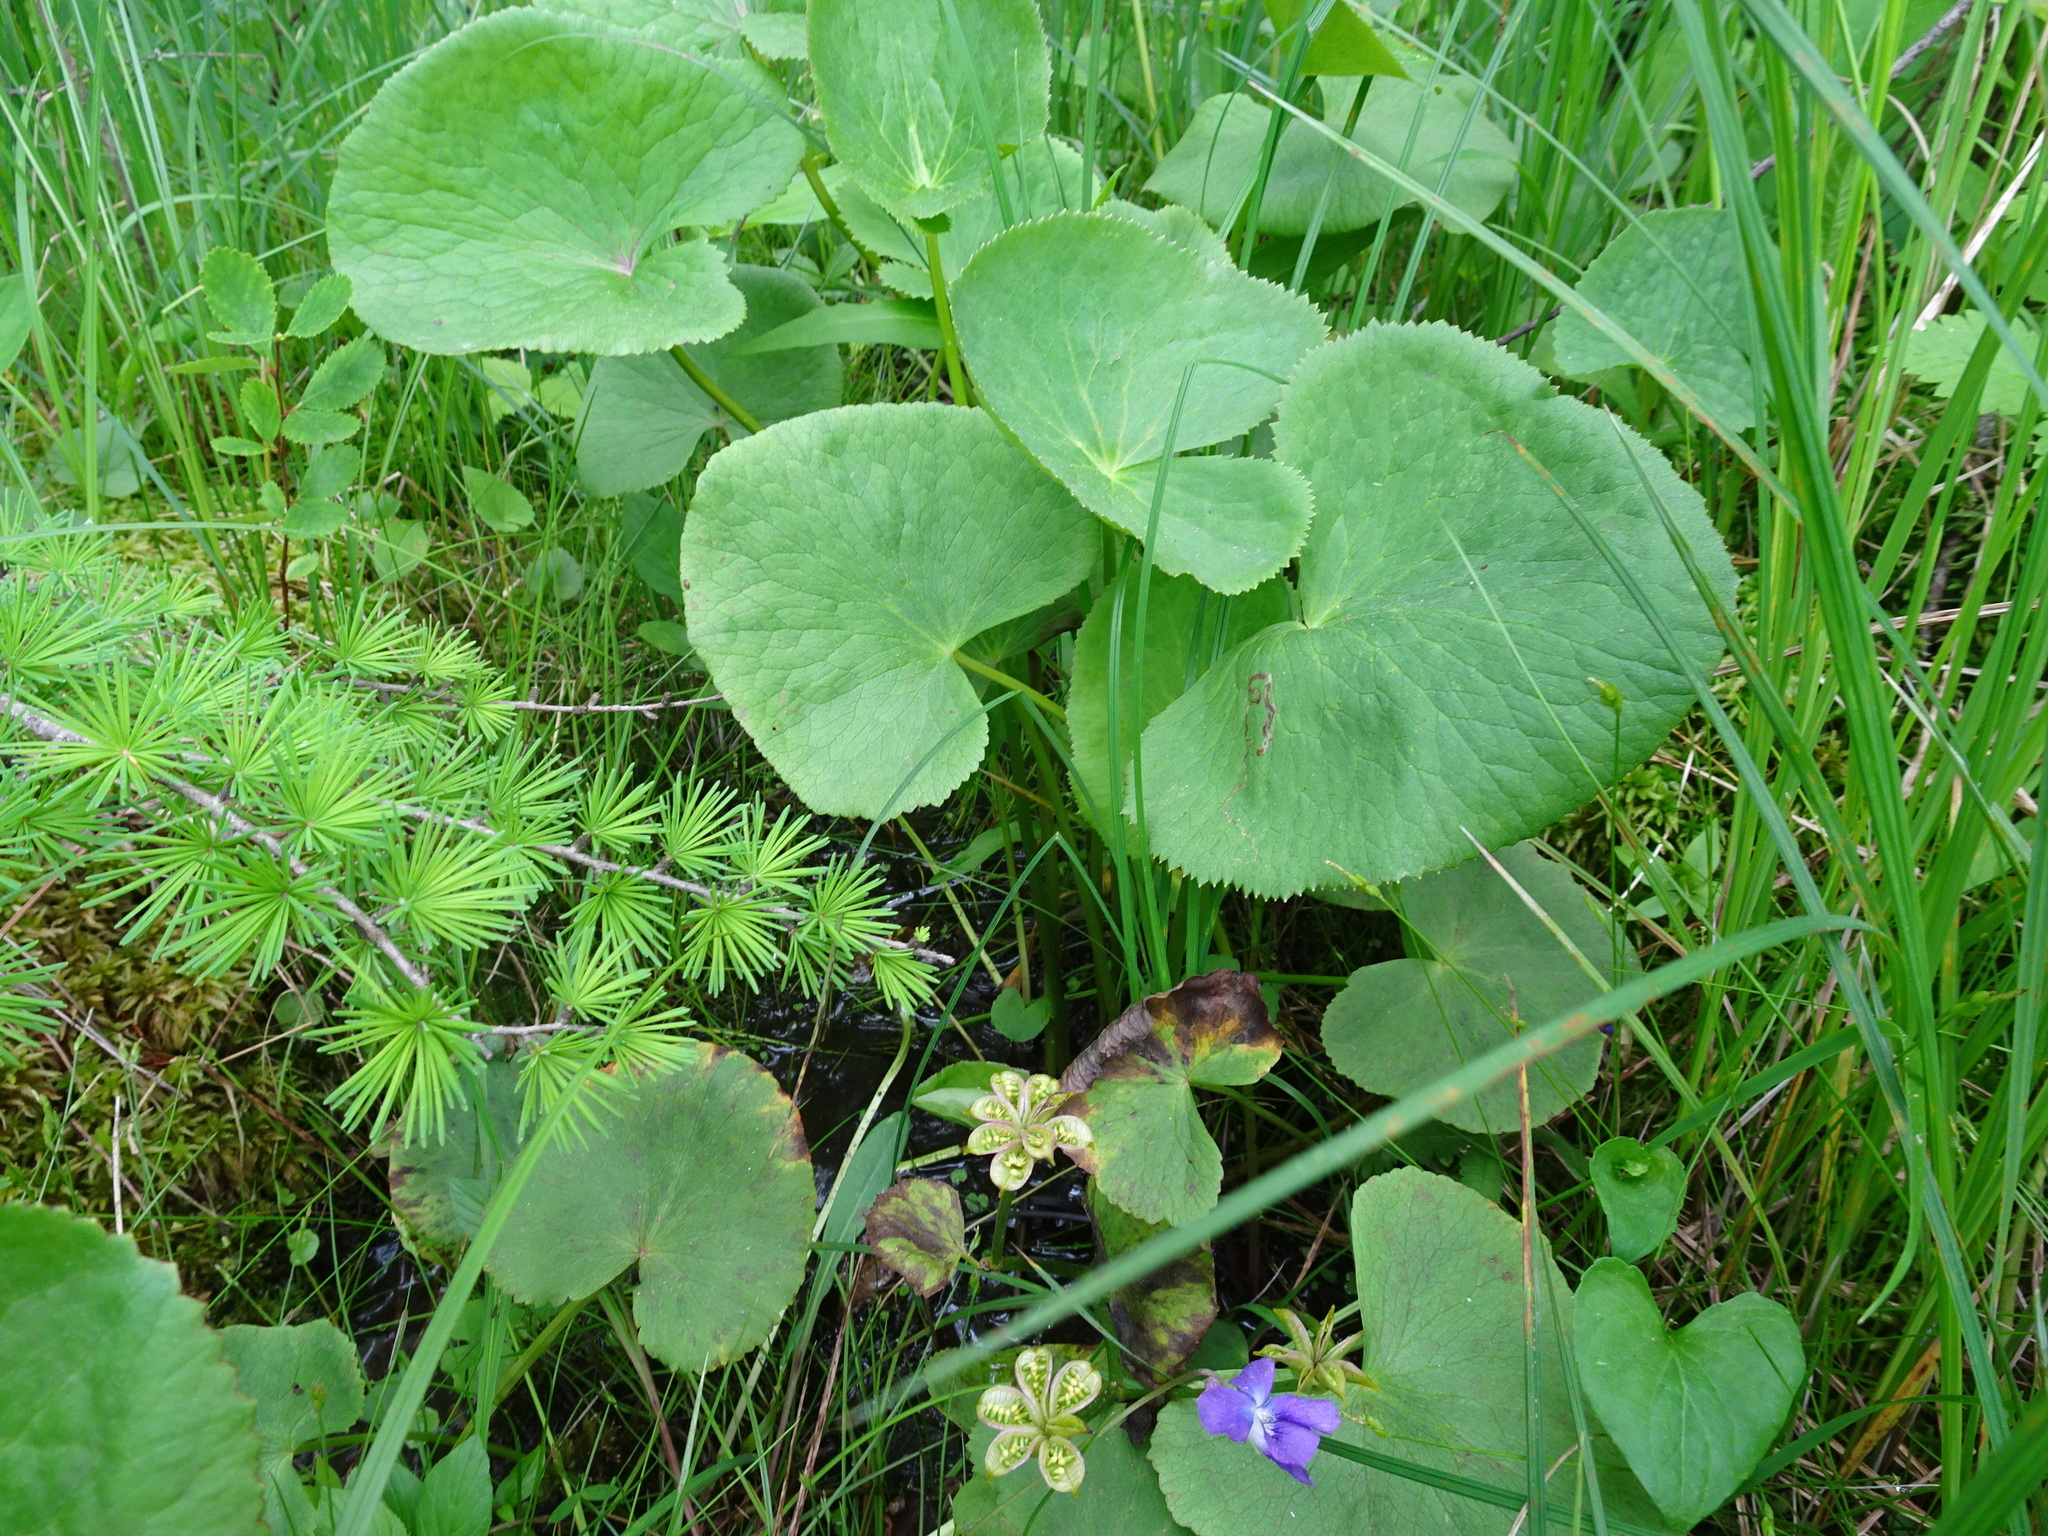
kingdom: Plantae
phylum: Tracheophyta
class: Magnoliopsida
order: Ranunculales
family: Ranunculaceae
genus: Caltha
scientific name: Caltha palustris
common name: Marsh marigold
